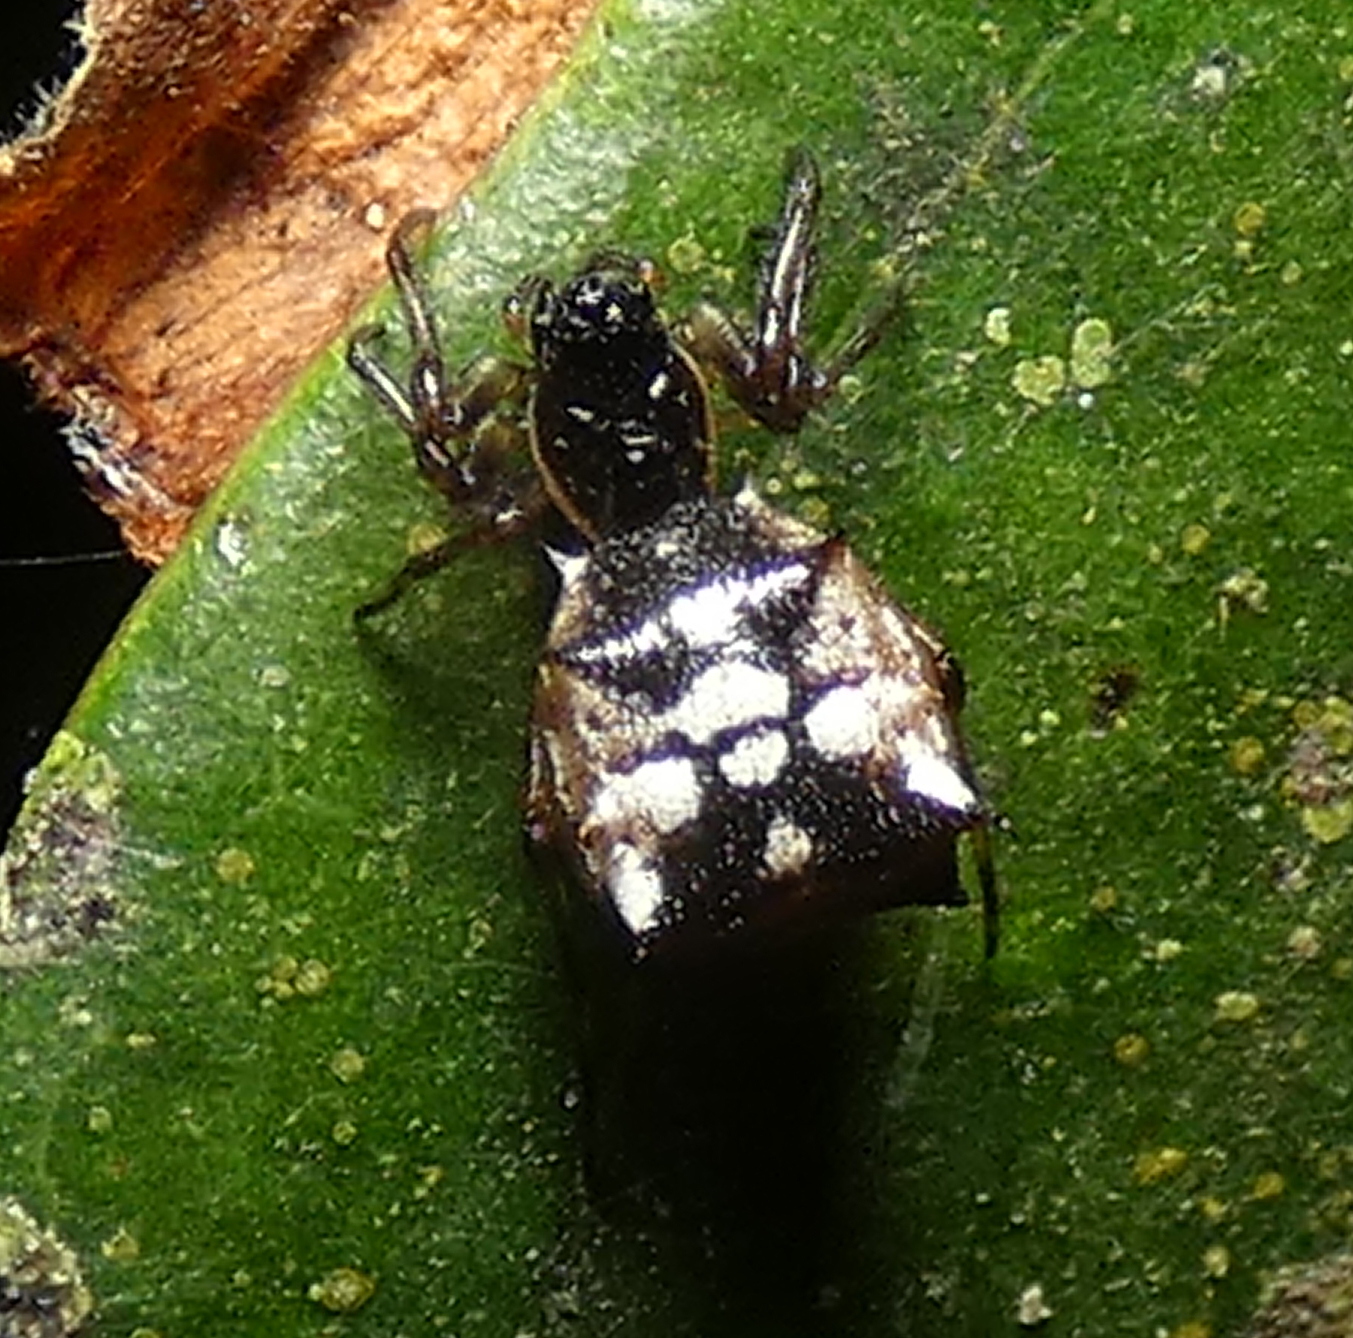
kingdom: Animalia
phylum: Arthropoda
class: Arachnida
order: Araneae
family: Araneidae
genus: Micrathena
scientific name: Micrathena picta
